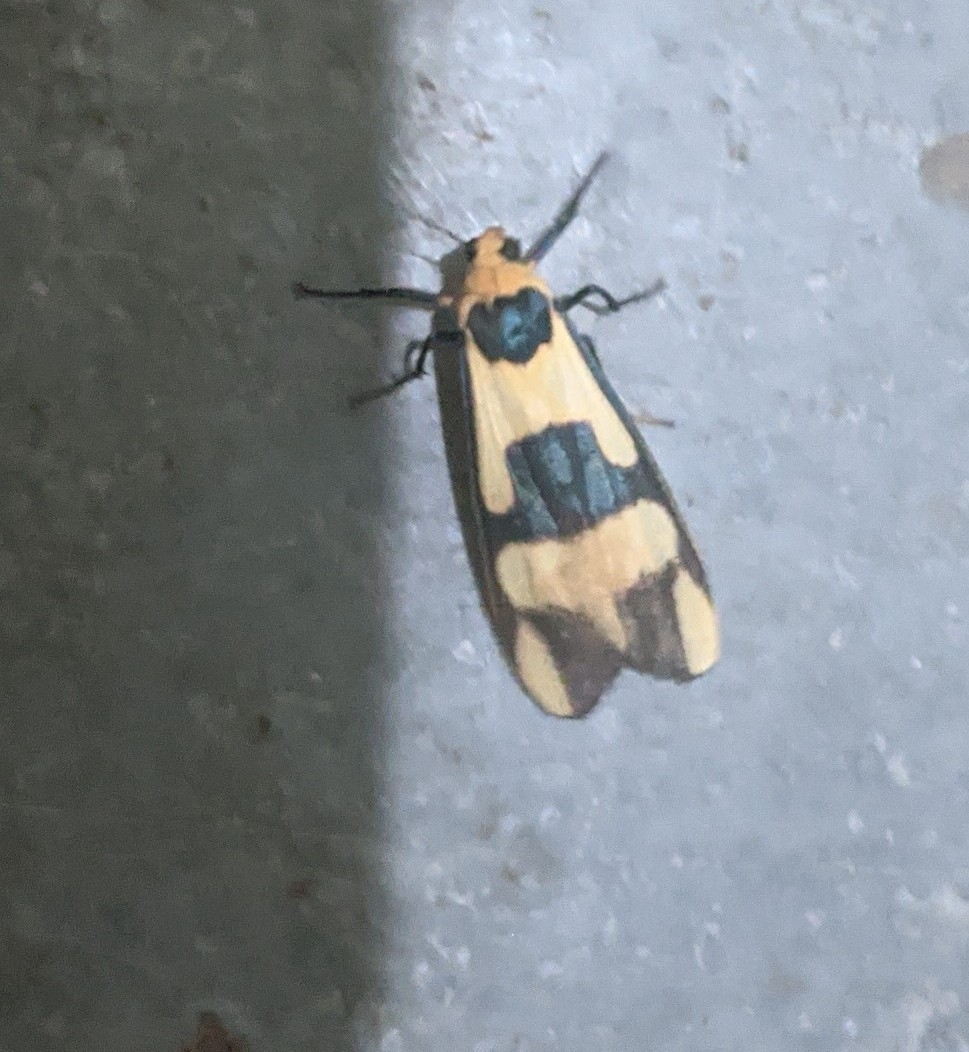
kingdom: Animalia
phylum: Arthropoda
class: Insecta
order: Lepidoptera
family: Erebidae
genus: Oeonistis
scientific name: Oeonistis altica
